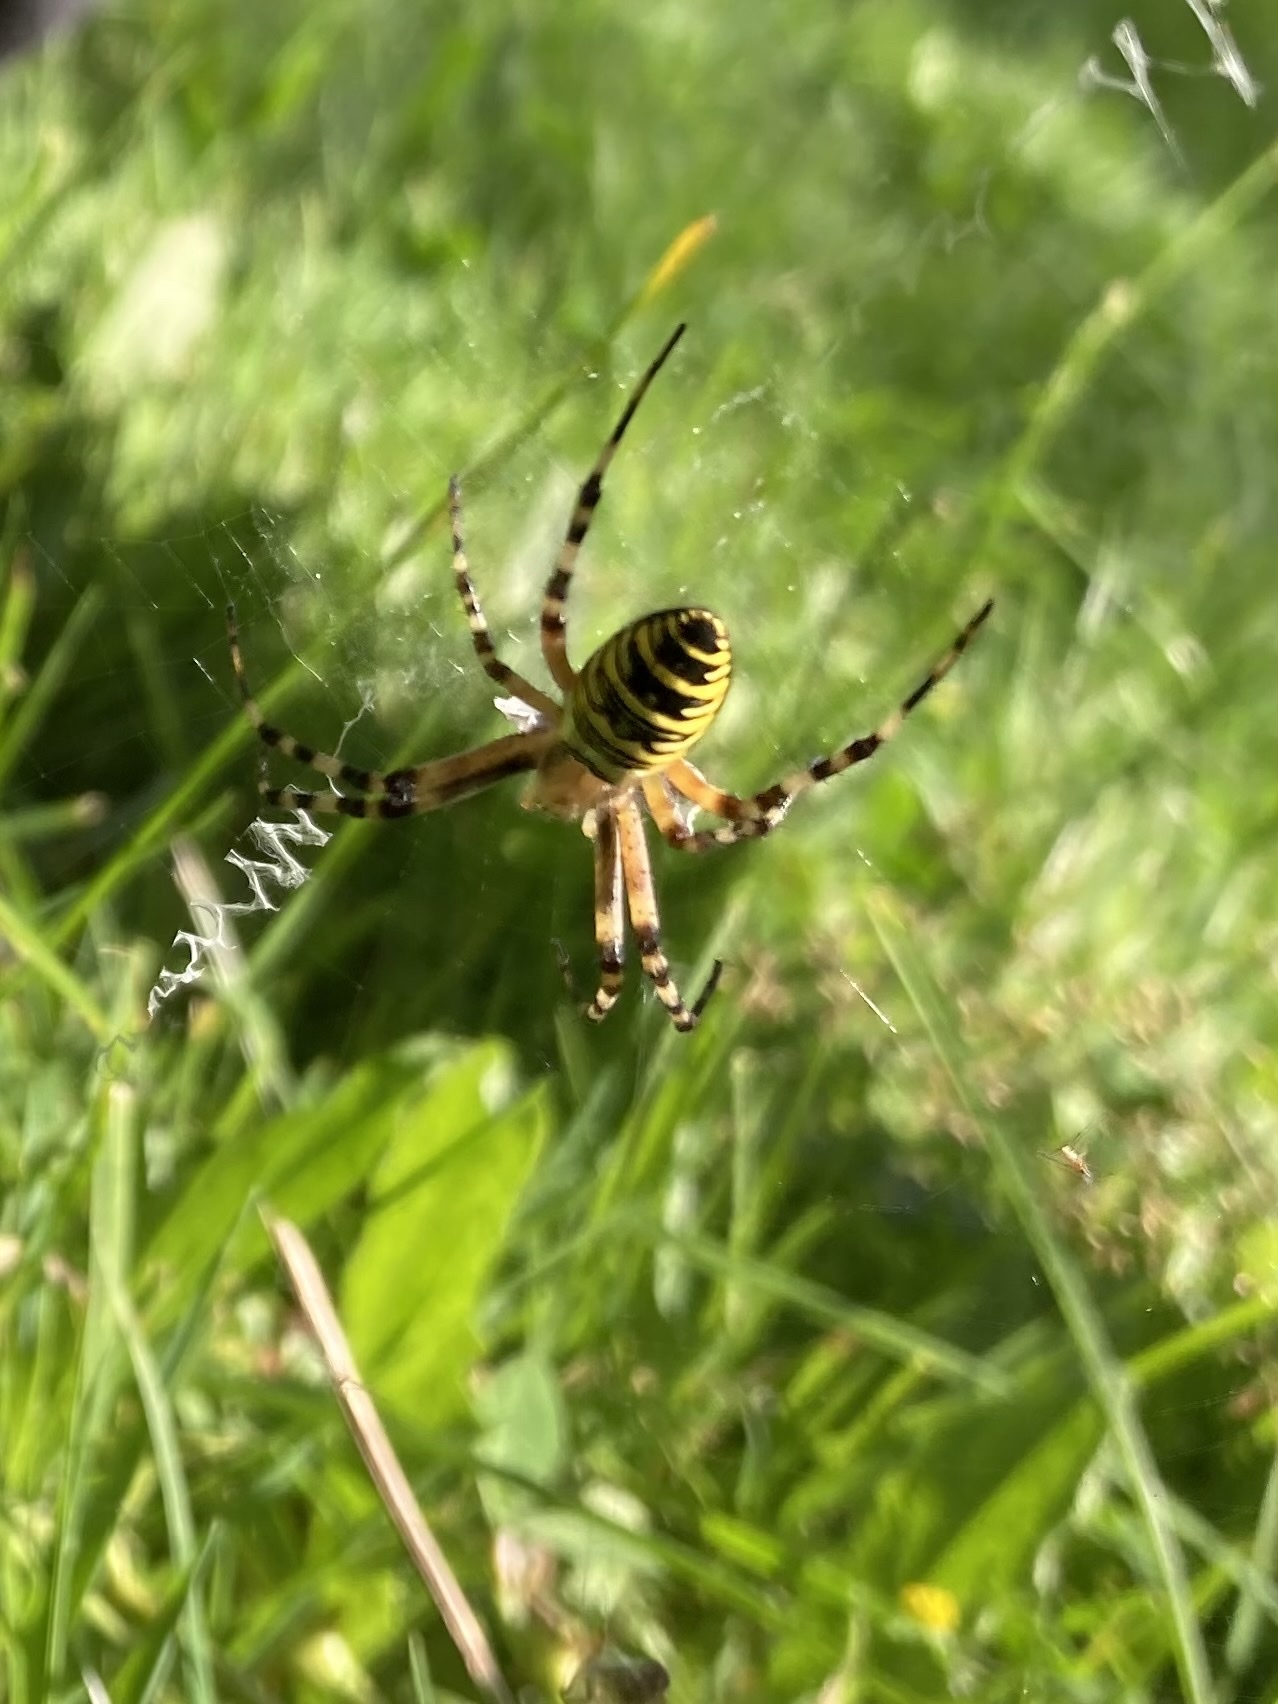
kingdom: Animalia
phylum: Arthropoda
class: Arachnida
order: Araneae
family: Araneidae
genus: Argiope
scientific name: Argiope bruennichi
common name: Wasp spider
